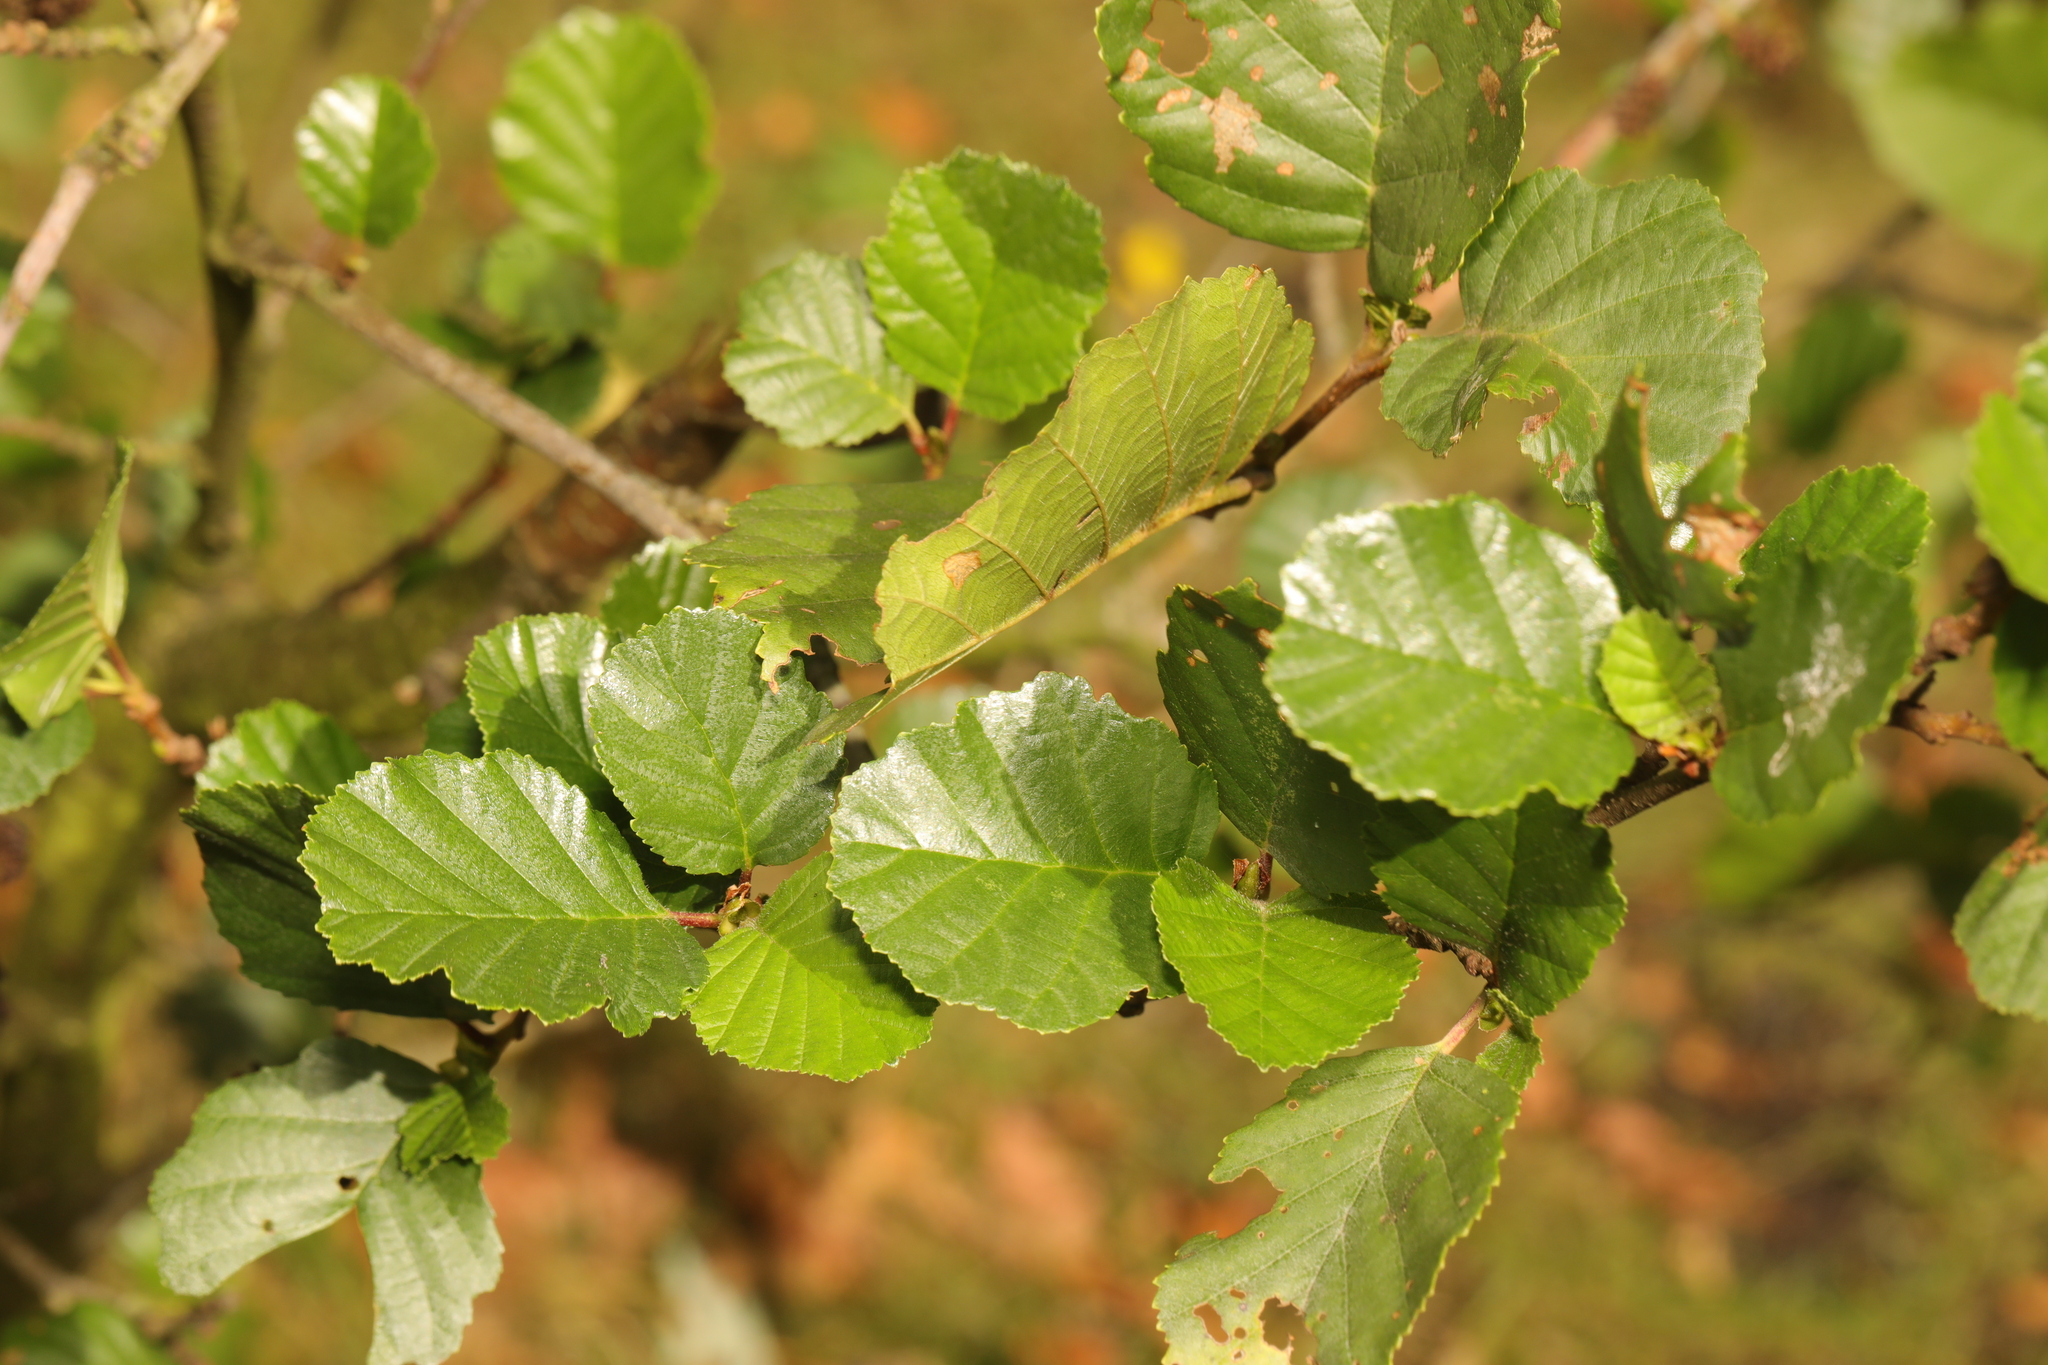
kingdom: Plantae
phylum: Tracheophyta
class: Magnoliopsida
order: Fagales
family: Betulaceae
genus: Alnus
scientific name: Alnus glutinosa
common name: Black alder
